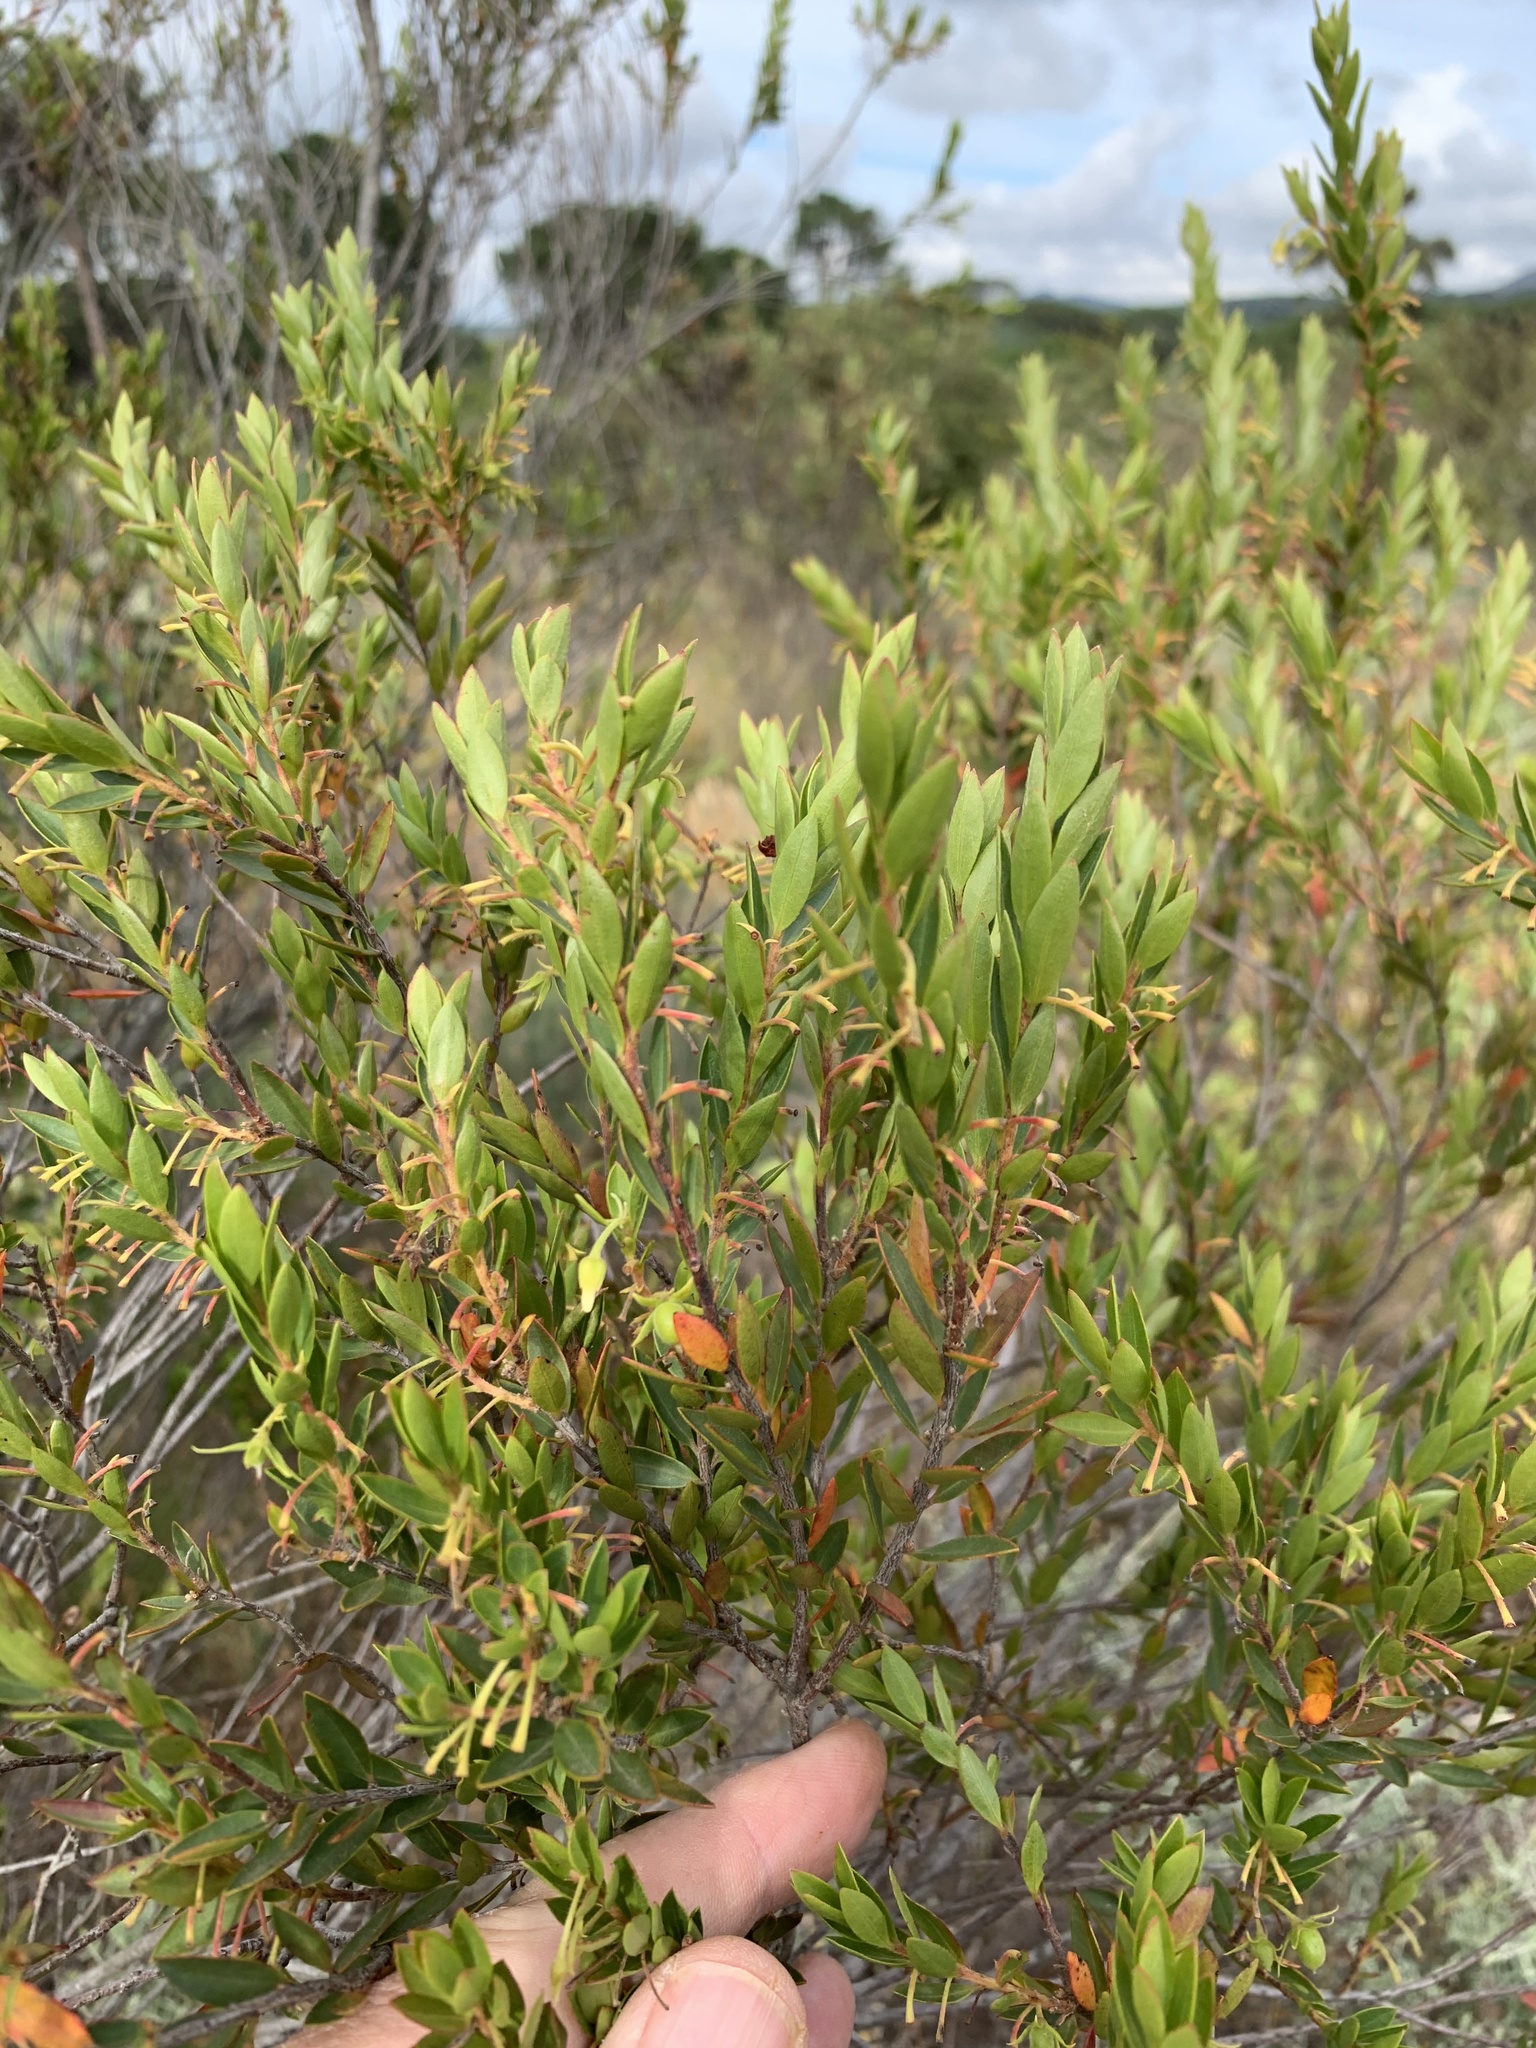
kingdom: Plantae
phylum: Tracheophyta
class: Magnoliopsida
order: Ericales
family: Ebenaceae
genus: Diospyros
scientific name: Diospyros glabra
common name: Fynbos star apple
